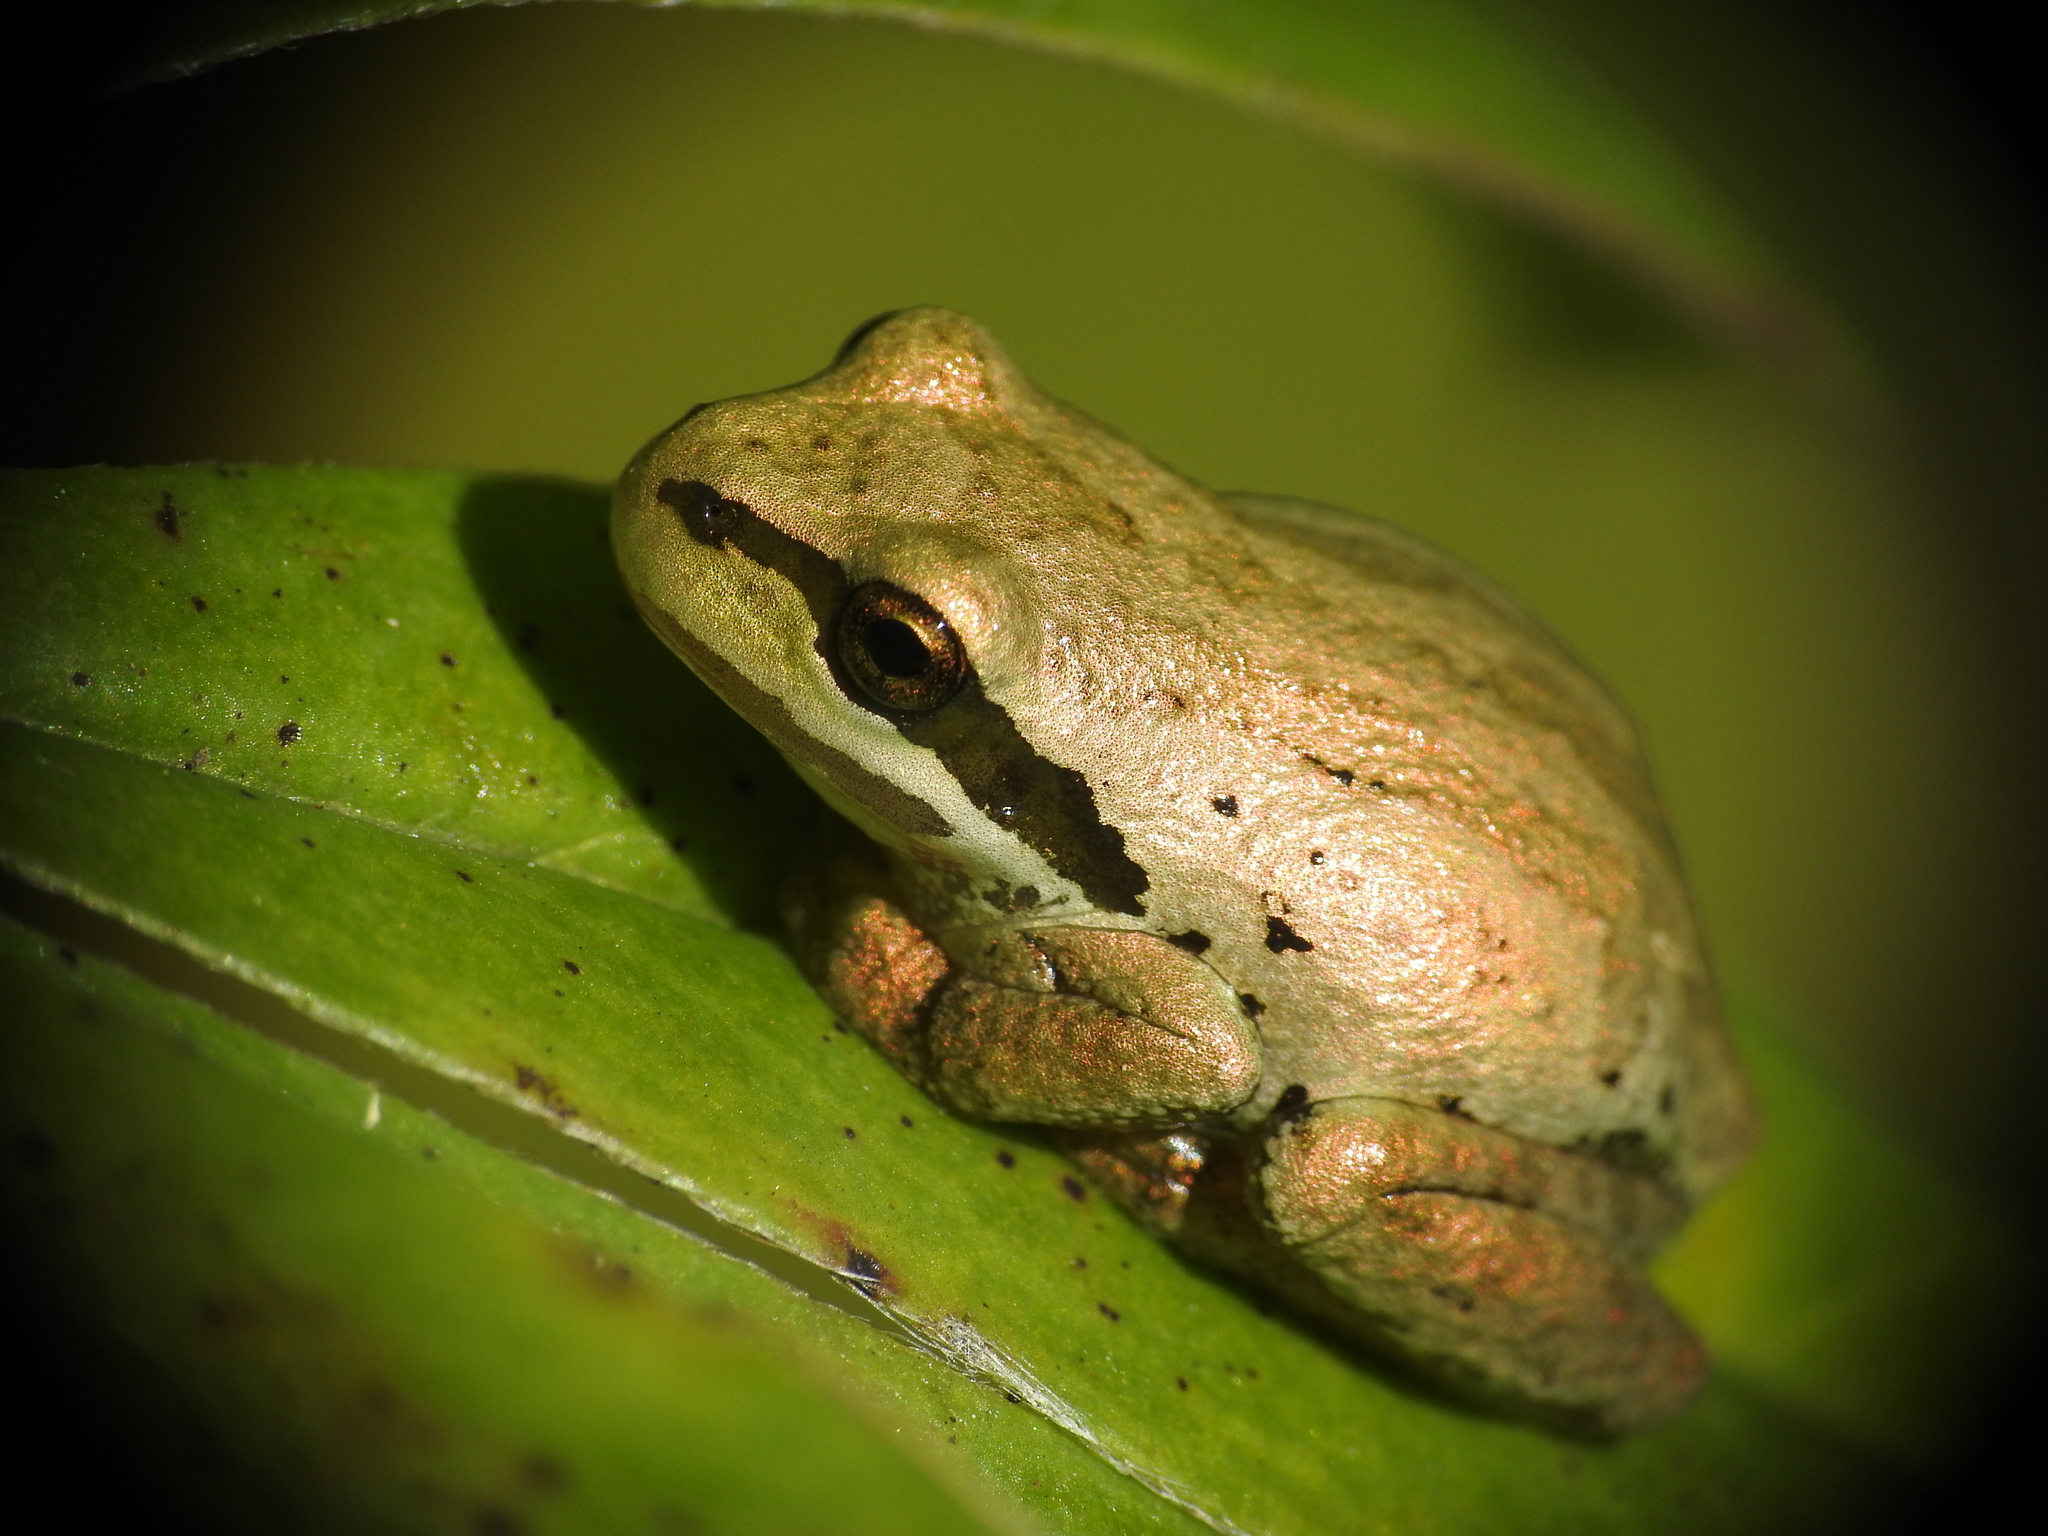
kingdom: Animalia
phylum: Chordata
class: Amphibia
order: Anura
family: Hylidae
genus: Pseudacris
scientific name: Pseudacris regilla
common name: Pacific chorus frog
